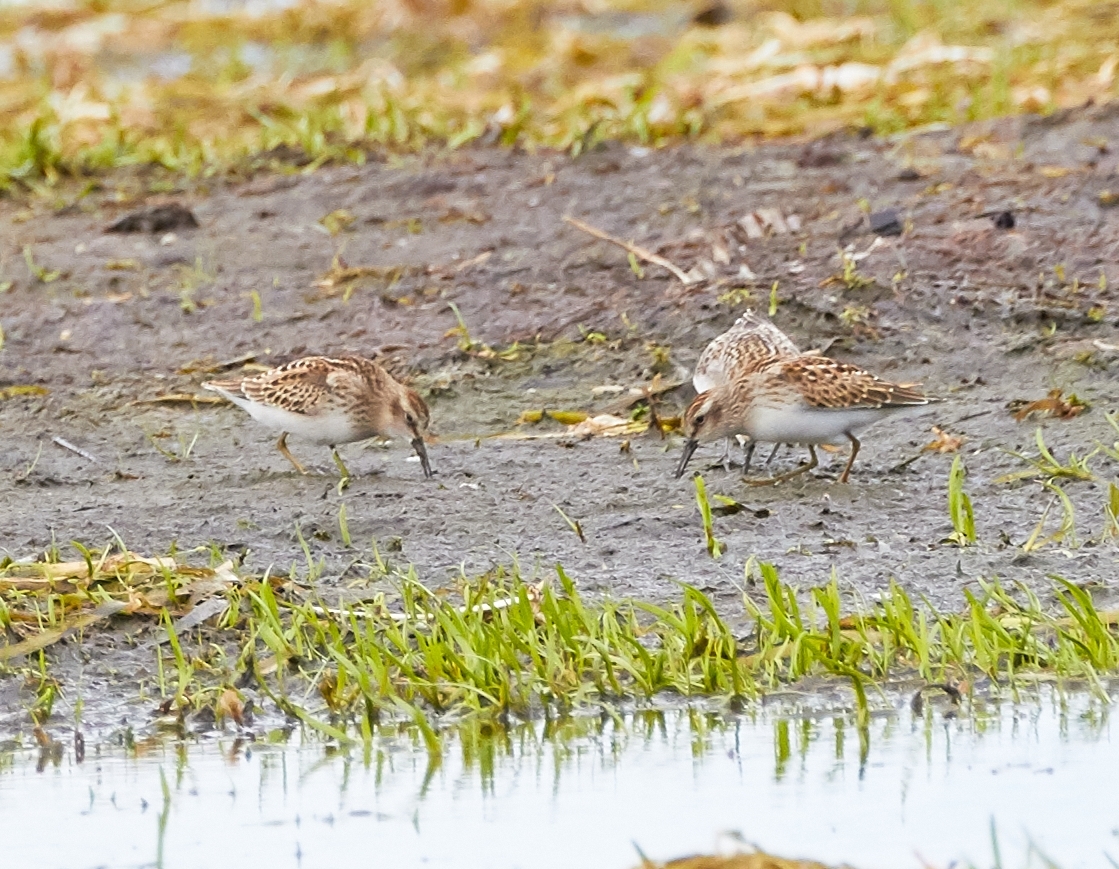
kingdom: Animalia
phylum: Chordata
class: Aves
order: Charadriiformes
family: Scolopacidae
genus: Calidris
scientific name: Calidris minutilla
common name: Least sandpiper
